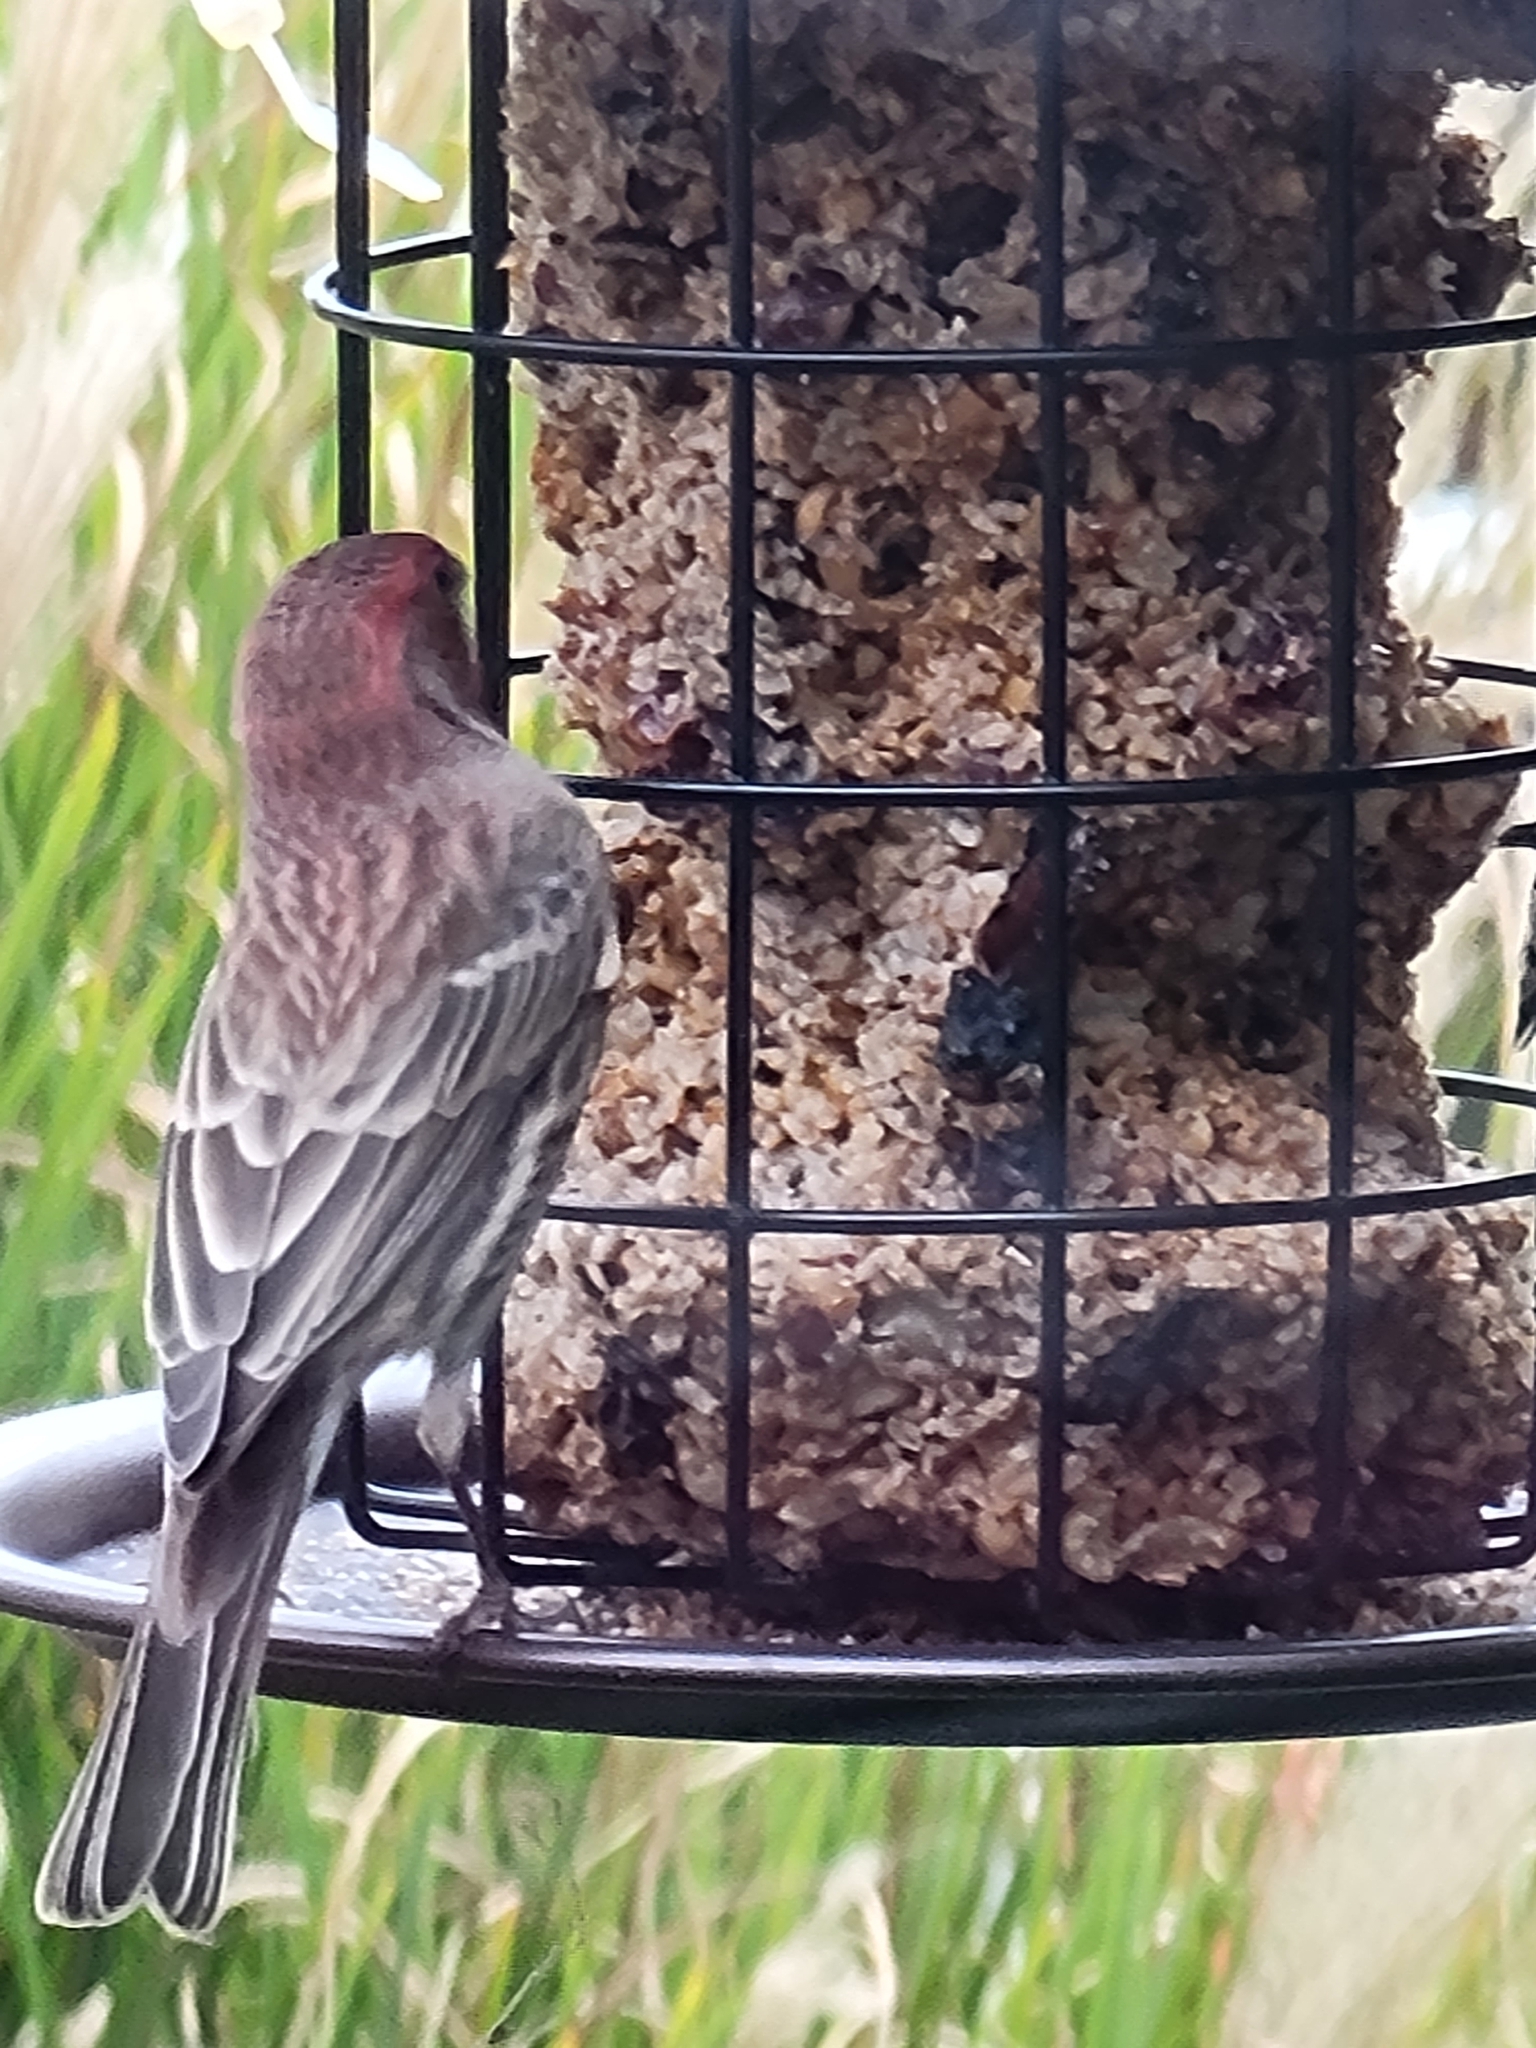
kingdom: Animalia
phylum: Chordata
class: Aves
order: Passeriformes
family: Fringillidae
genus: Haemorhous
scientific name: Haemorhous mexicanus
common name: House finch
